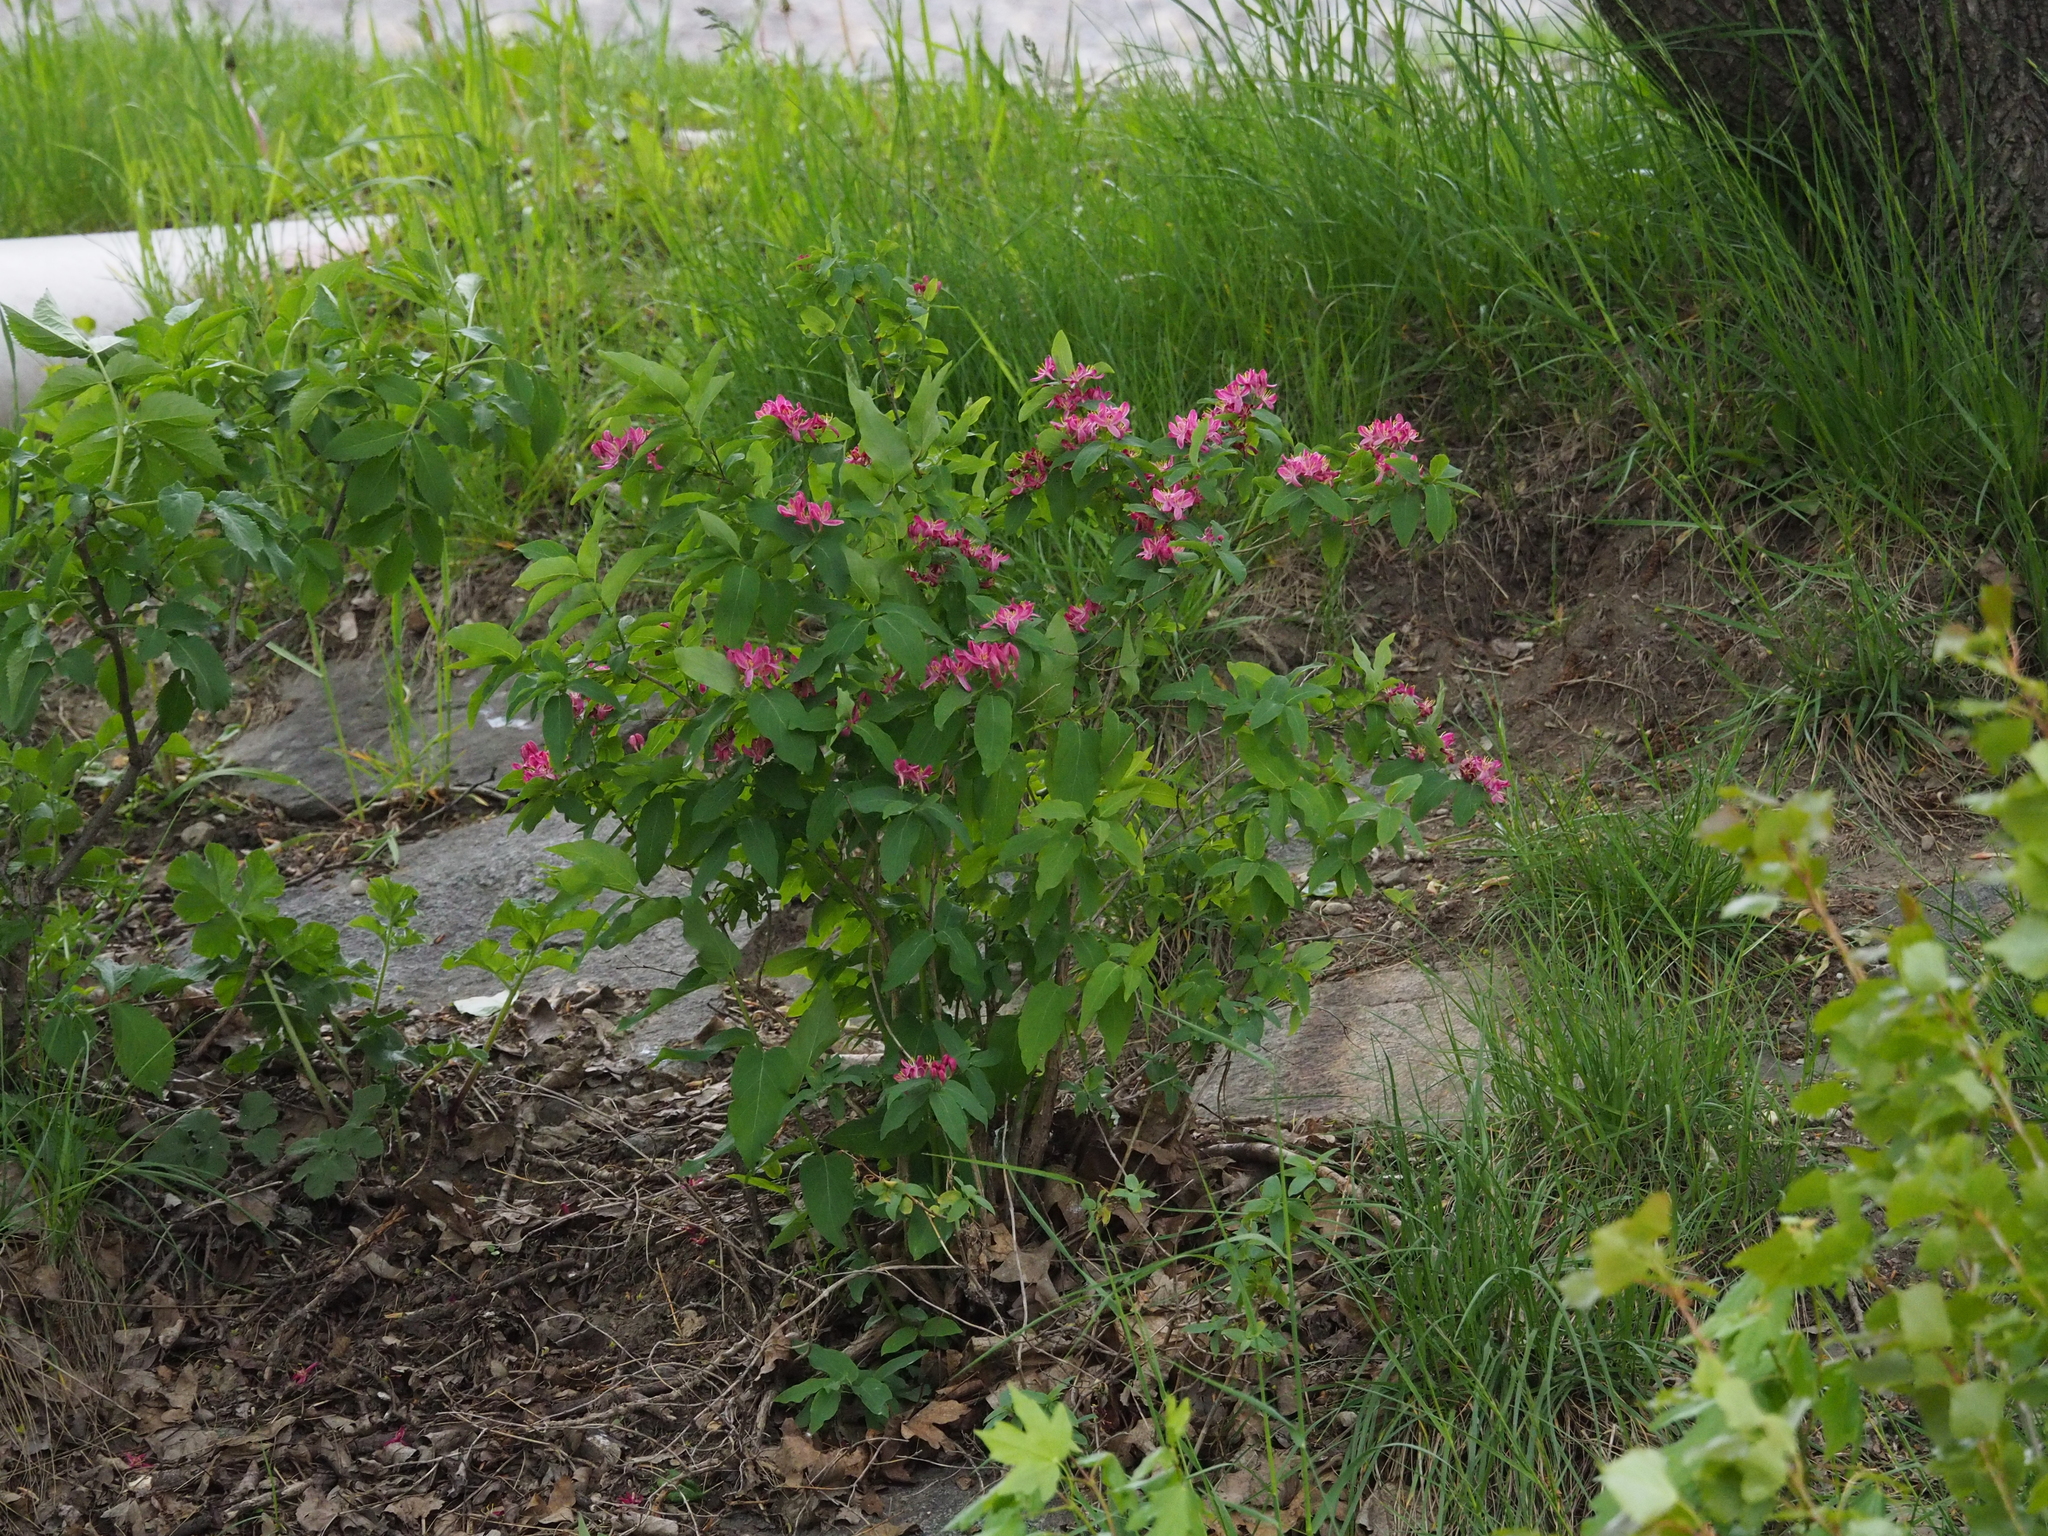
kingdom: Plantae
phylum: Tracheophyta
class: Magnoliopsida
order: Dipsacales
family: Caprifoliaceae
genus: Lonicera
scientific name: Lonicera tatarica
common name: Tatarian honeysuckle
